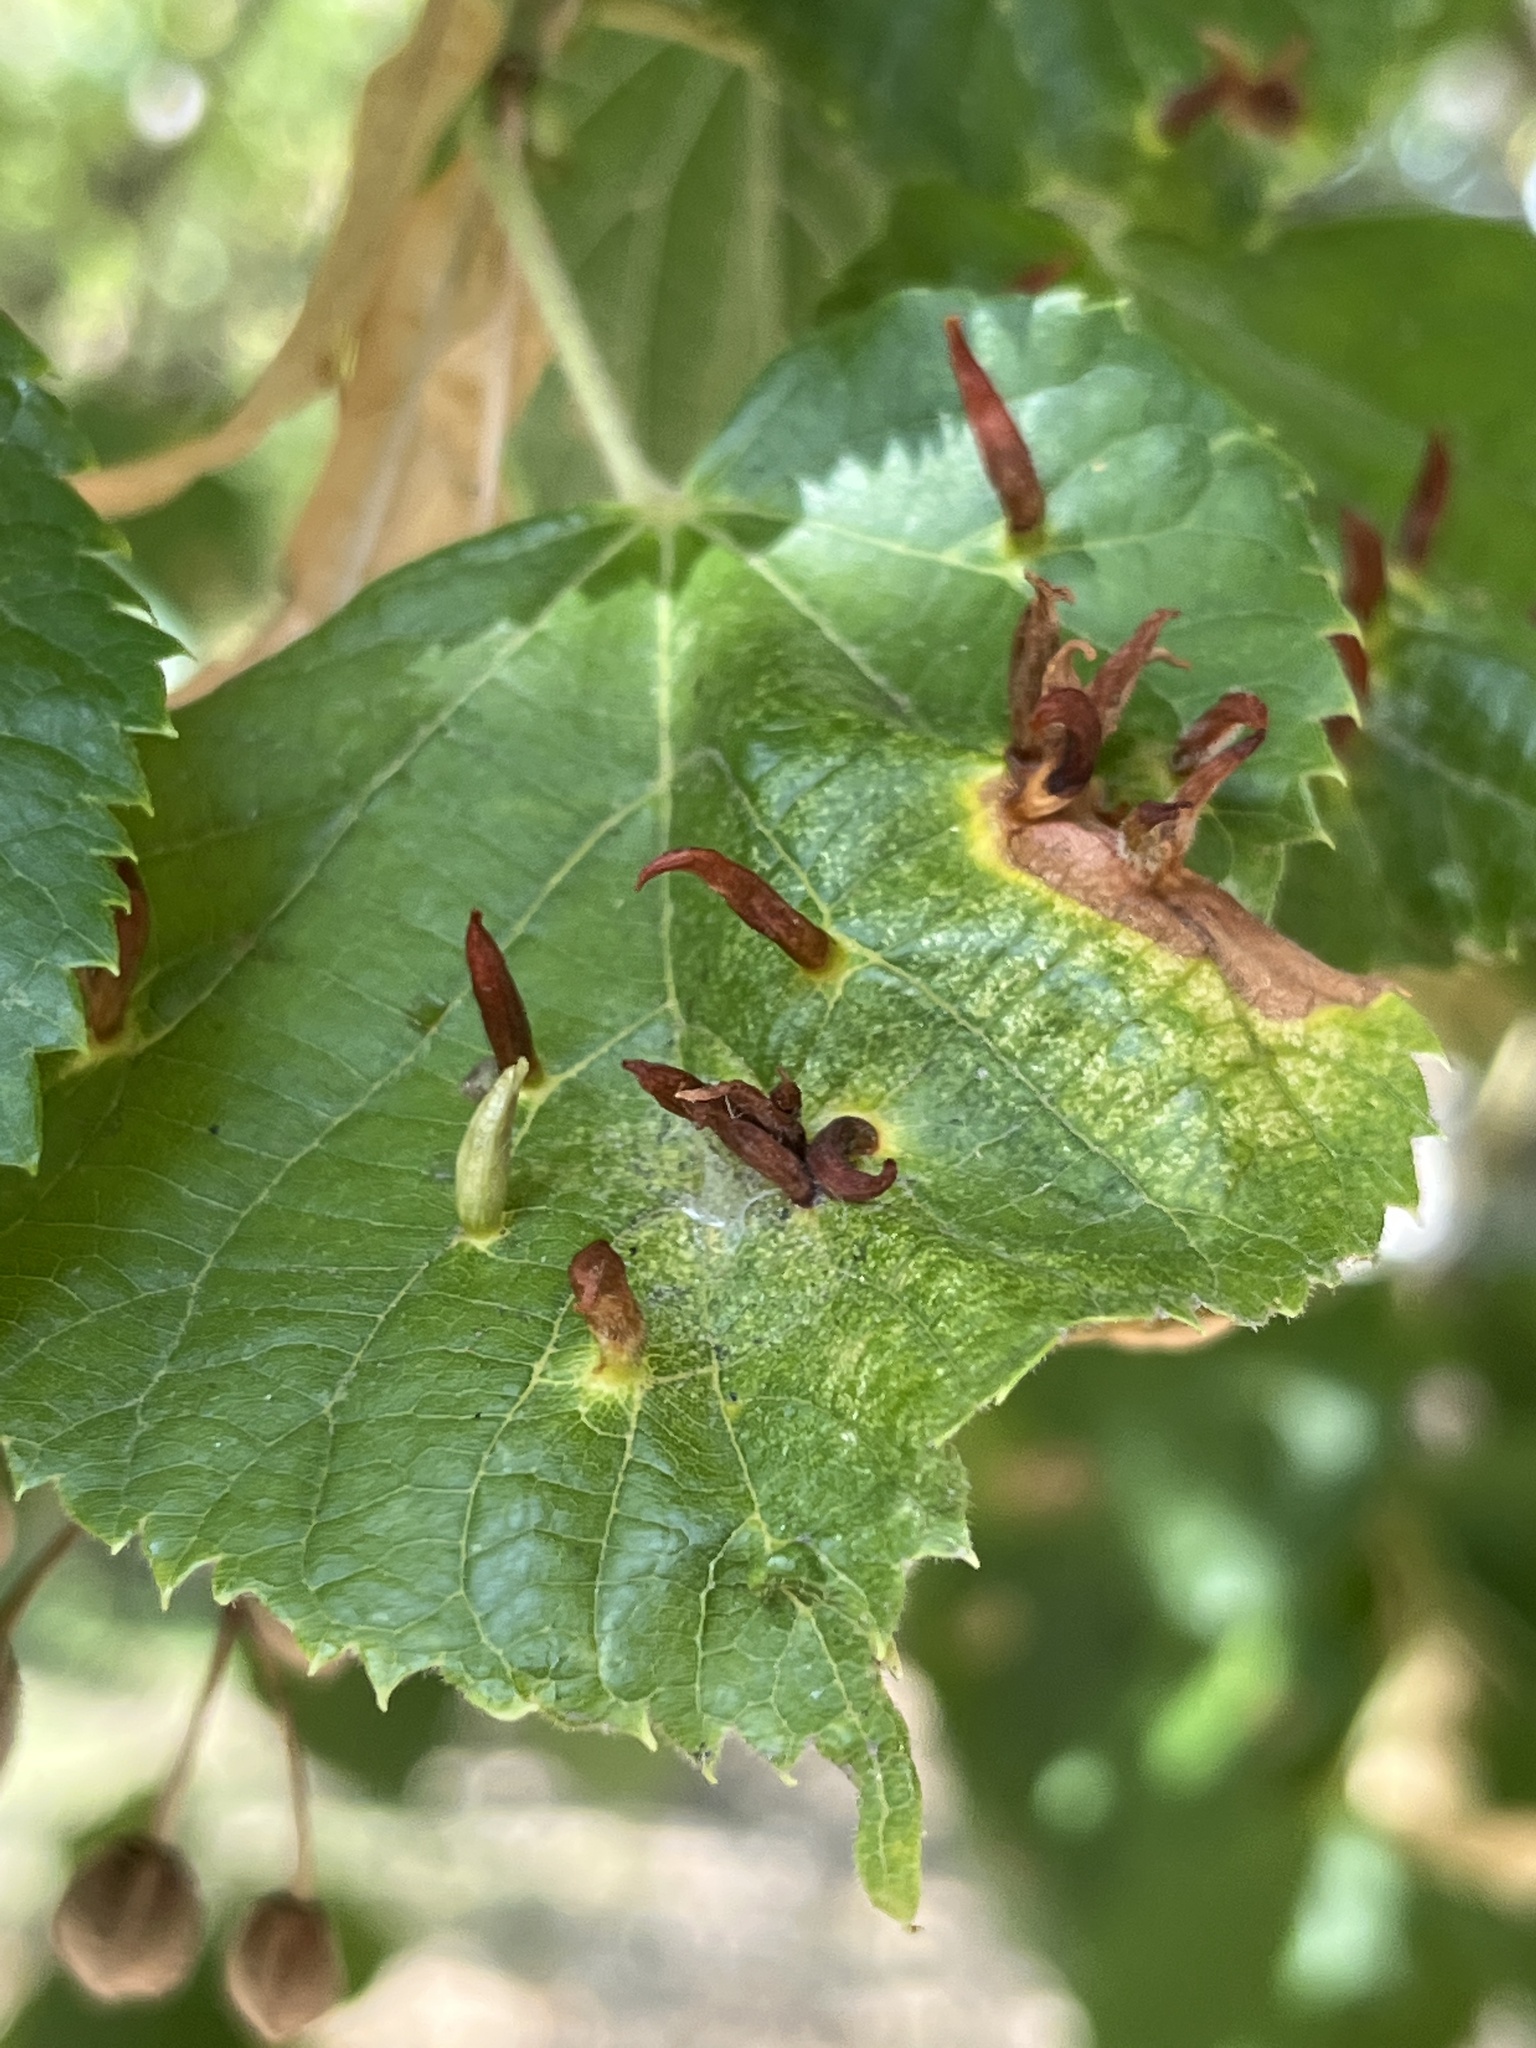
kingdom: Animalia
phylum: Arthropoda
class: Arachnida
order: Trombidiformes
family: Eriophyidae
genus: Eriophyes
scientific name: Eriophyes tiliae
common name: Red nail gall mite
